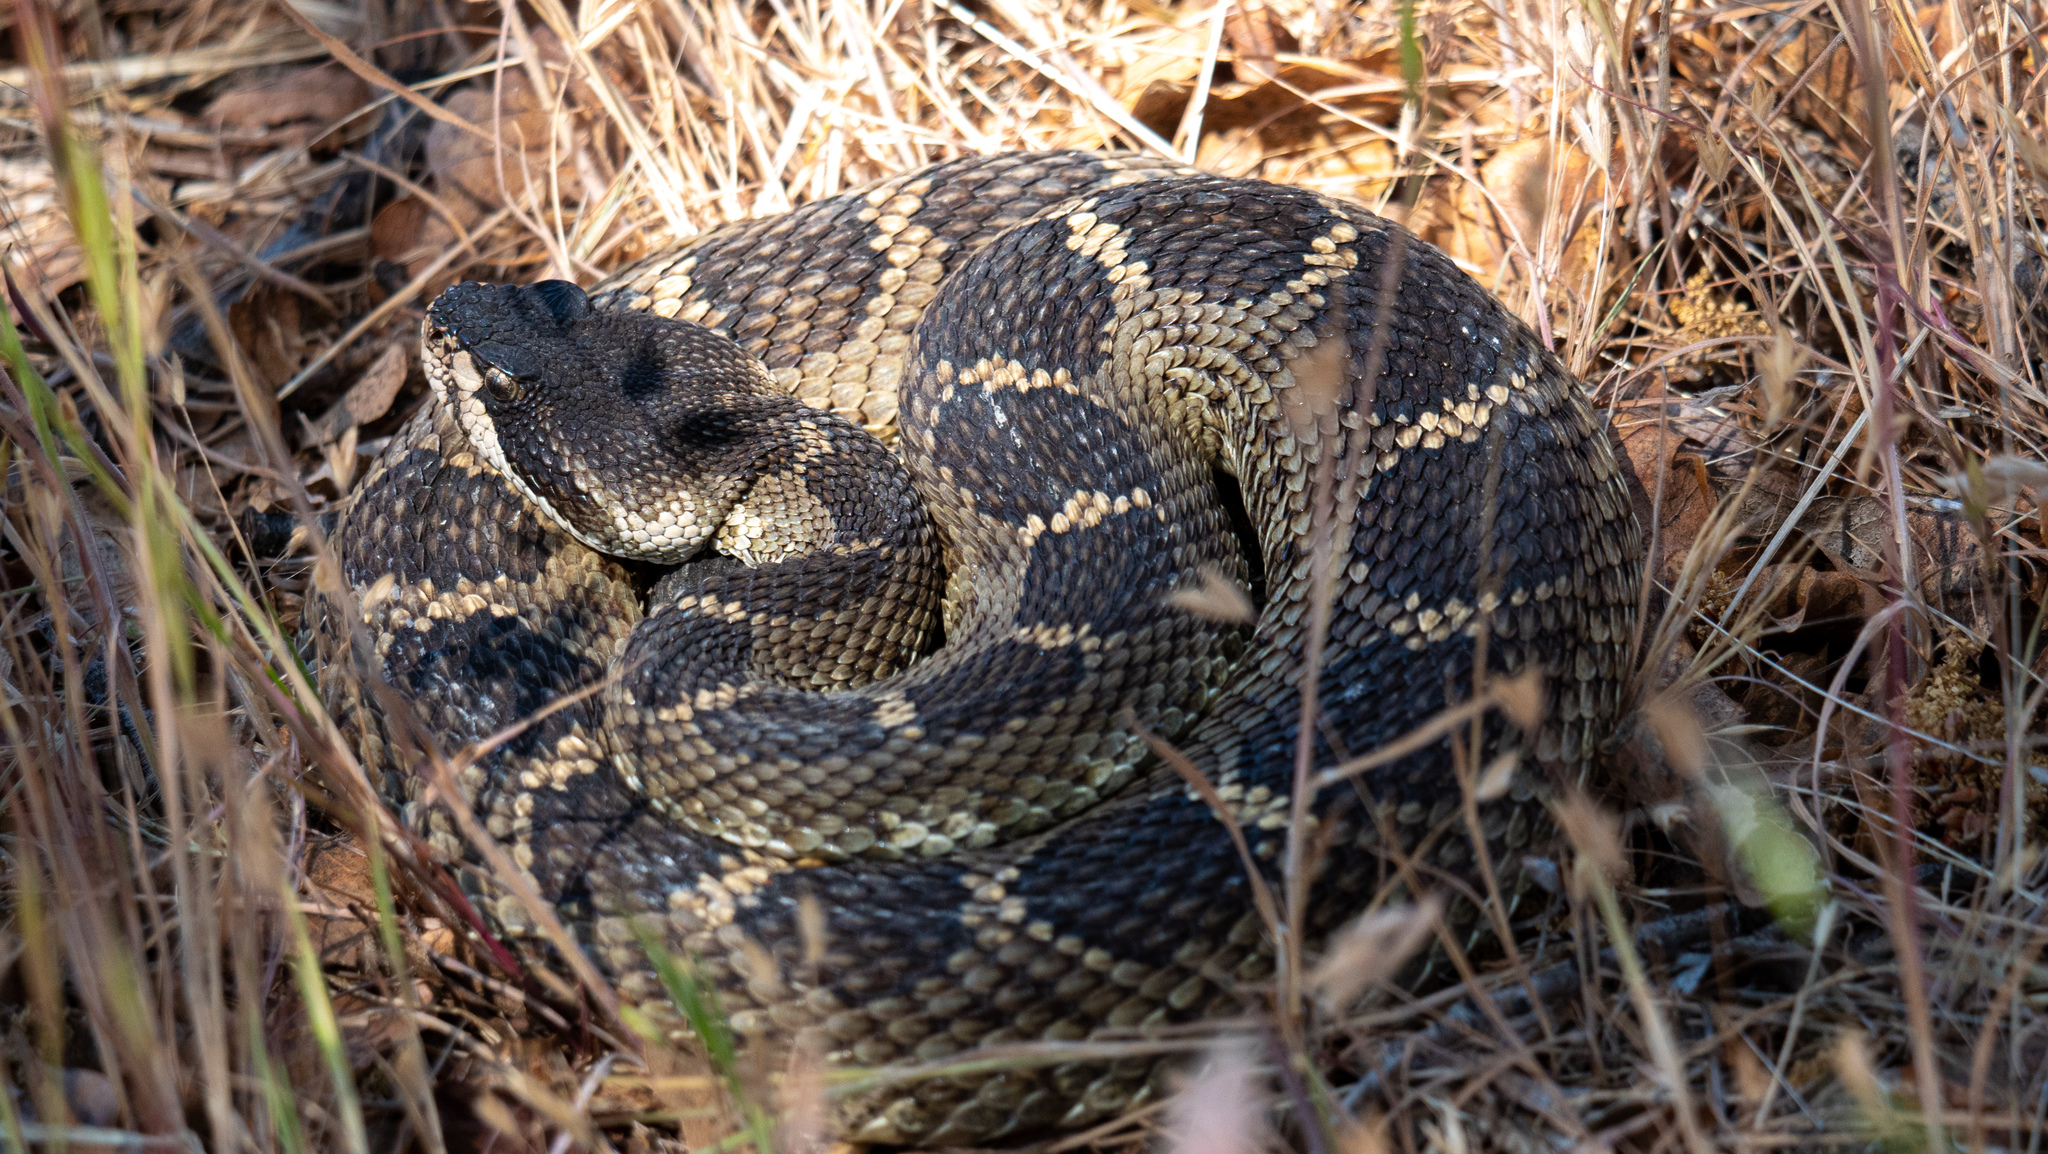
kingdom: Animalia
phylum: Chordata
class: Squamata
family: Viperidae
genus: Crotalus
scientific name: Crotalus oreganus
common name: Abyssus
